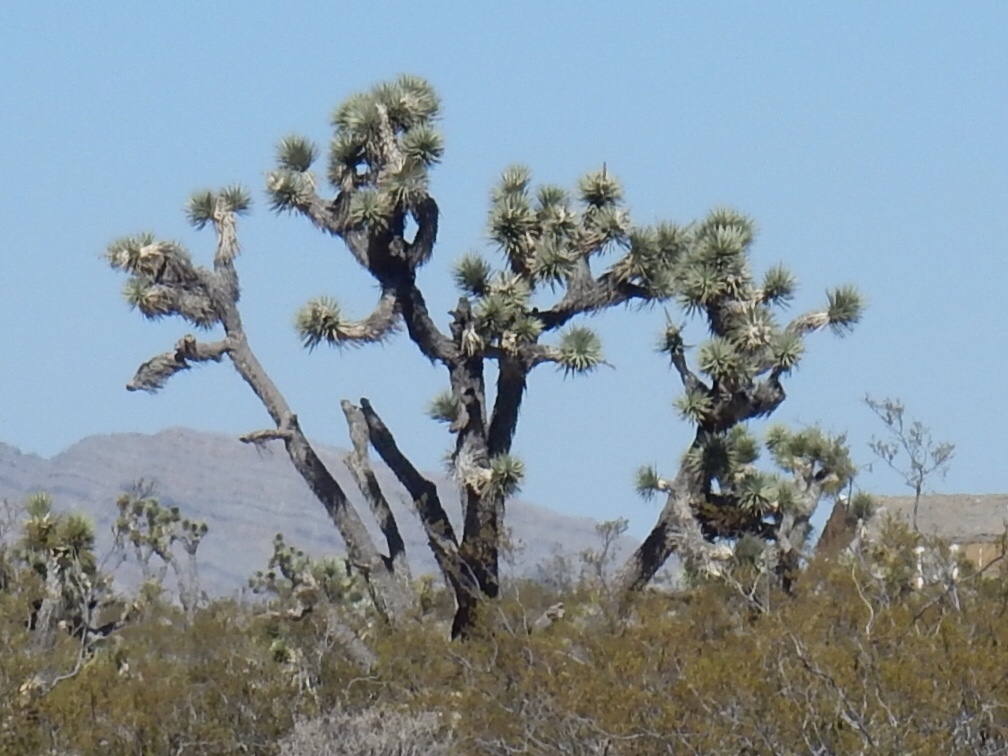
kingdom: Plantae
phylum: Tracheophyta
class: Liliopsida
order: Asparagales
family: Asparagaceae
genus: Yucca
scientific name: Yucca brevifolia
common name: Joshua tree
